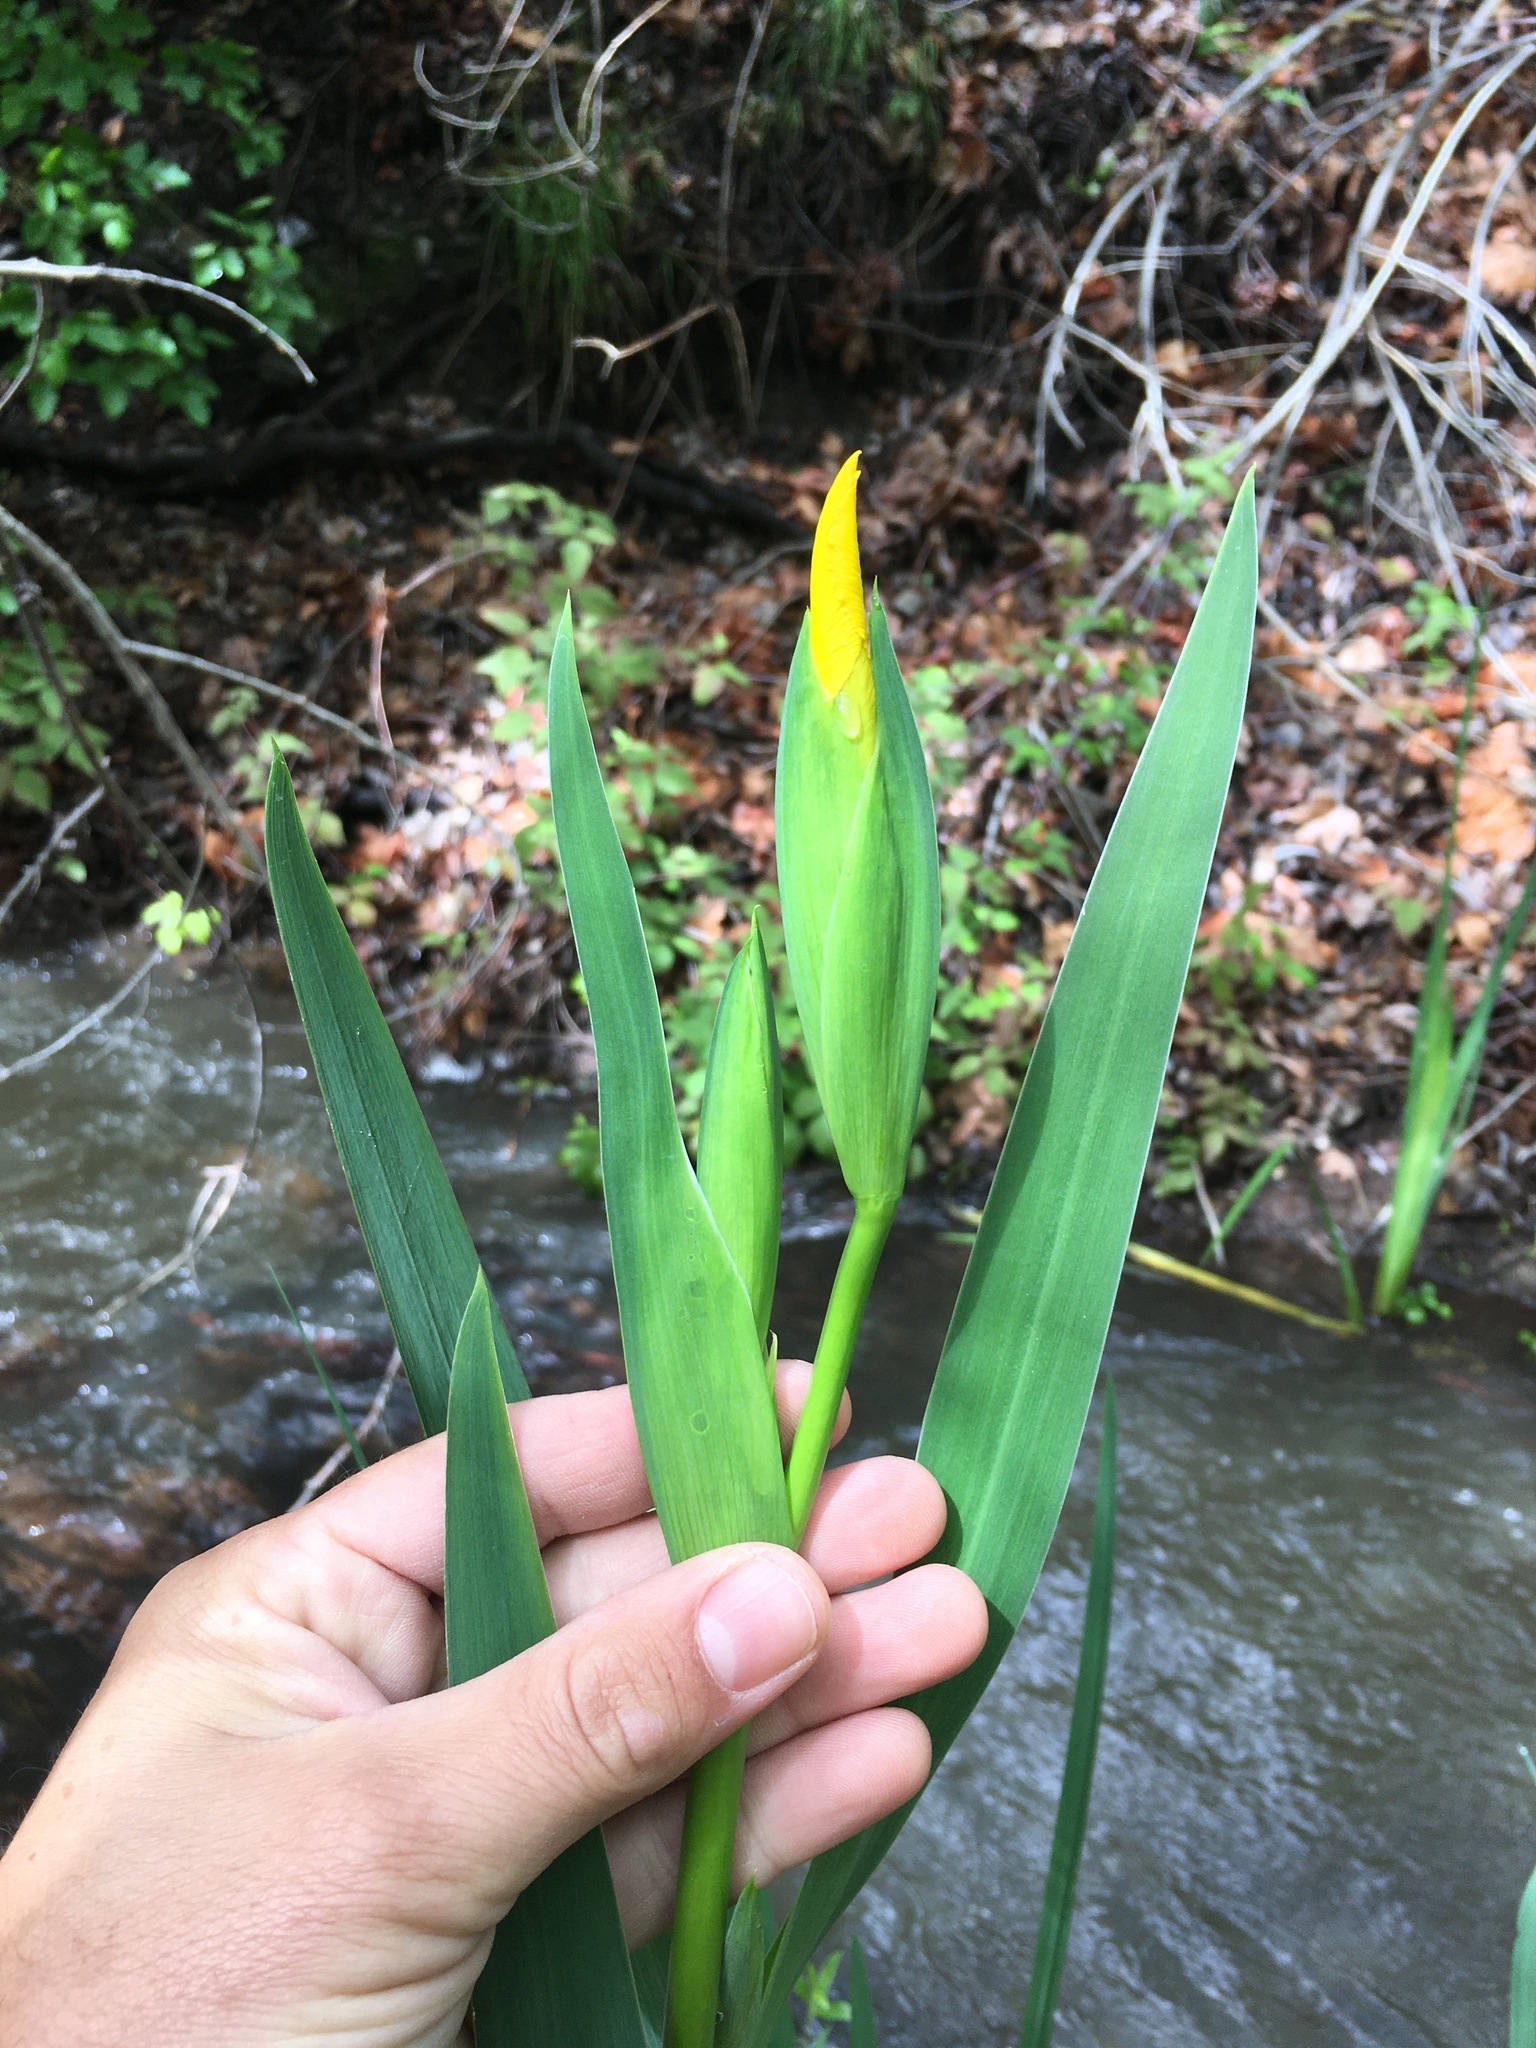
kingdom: Plantae
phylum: Tracheophyta
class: Liliopsida
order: Asparagales
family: Iridaceae
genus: Iris
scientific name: Iris pseudacorus
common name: Yellow flag
